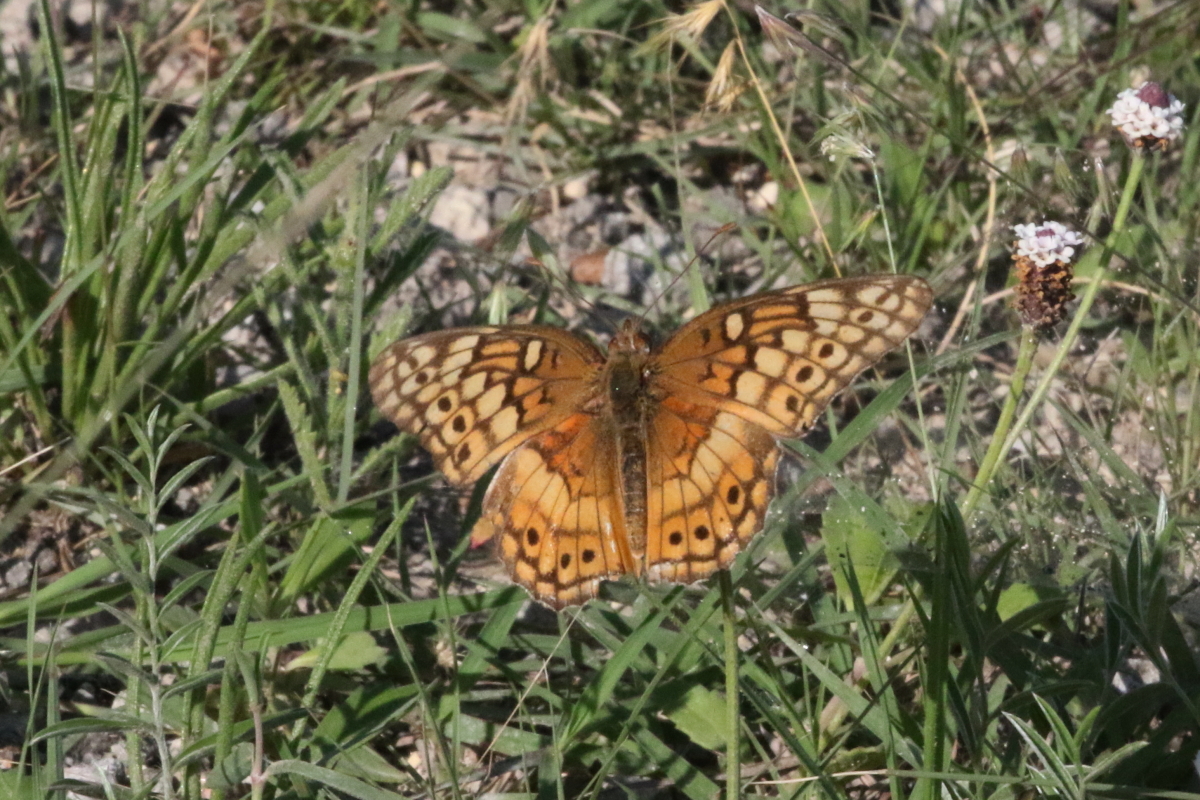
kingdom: Animalia
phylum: Arthropoda
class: Insecta
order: Lepidoptera
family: Nymphalidae
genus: Euptoieta
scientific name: Euptoieta claudia
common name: Variegated fritillary
